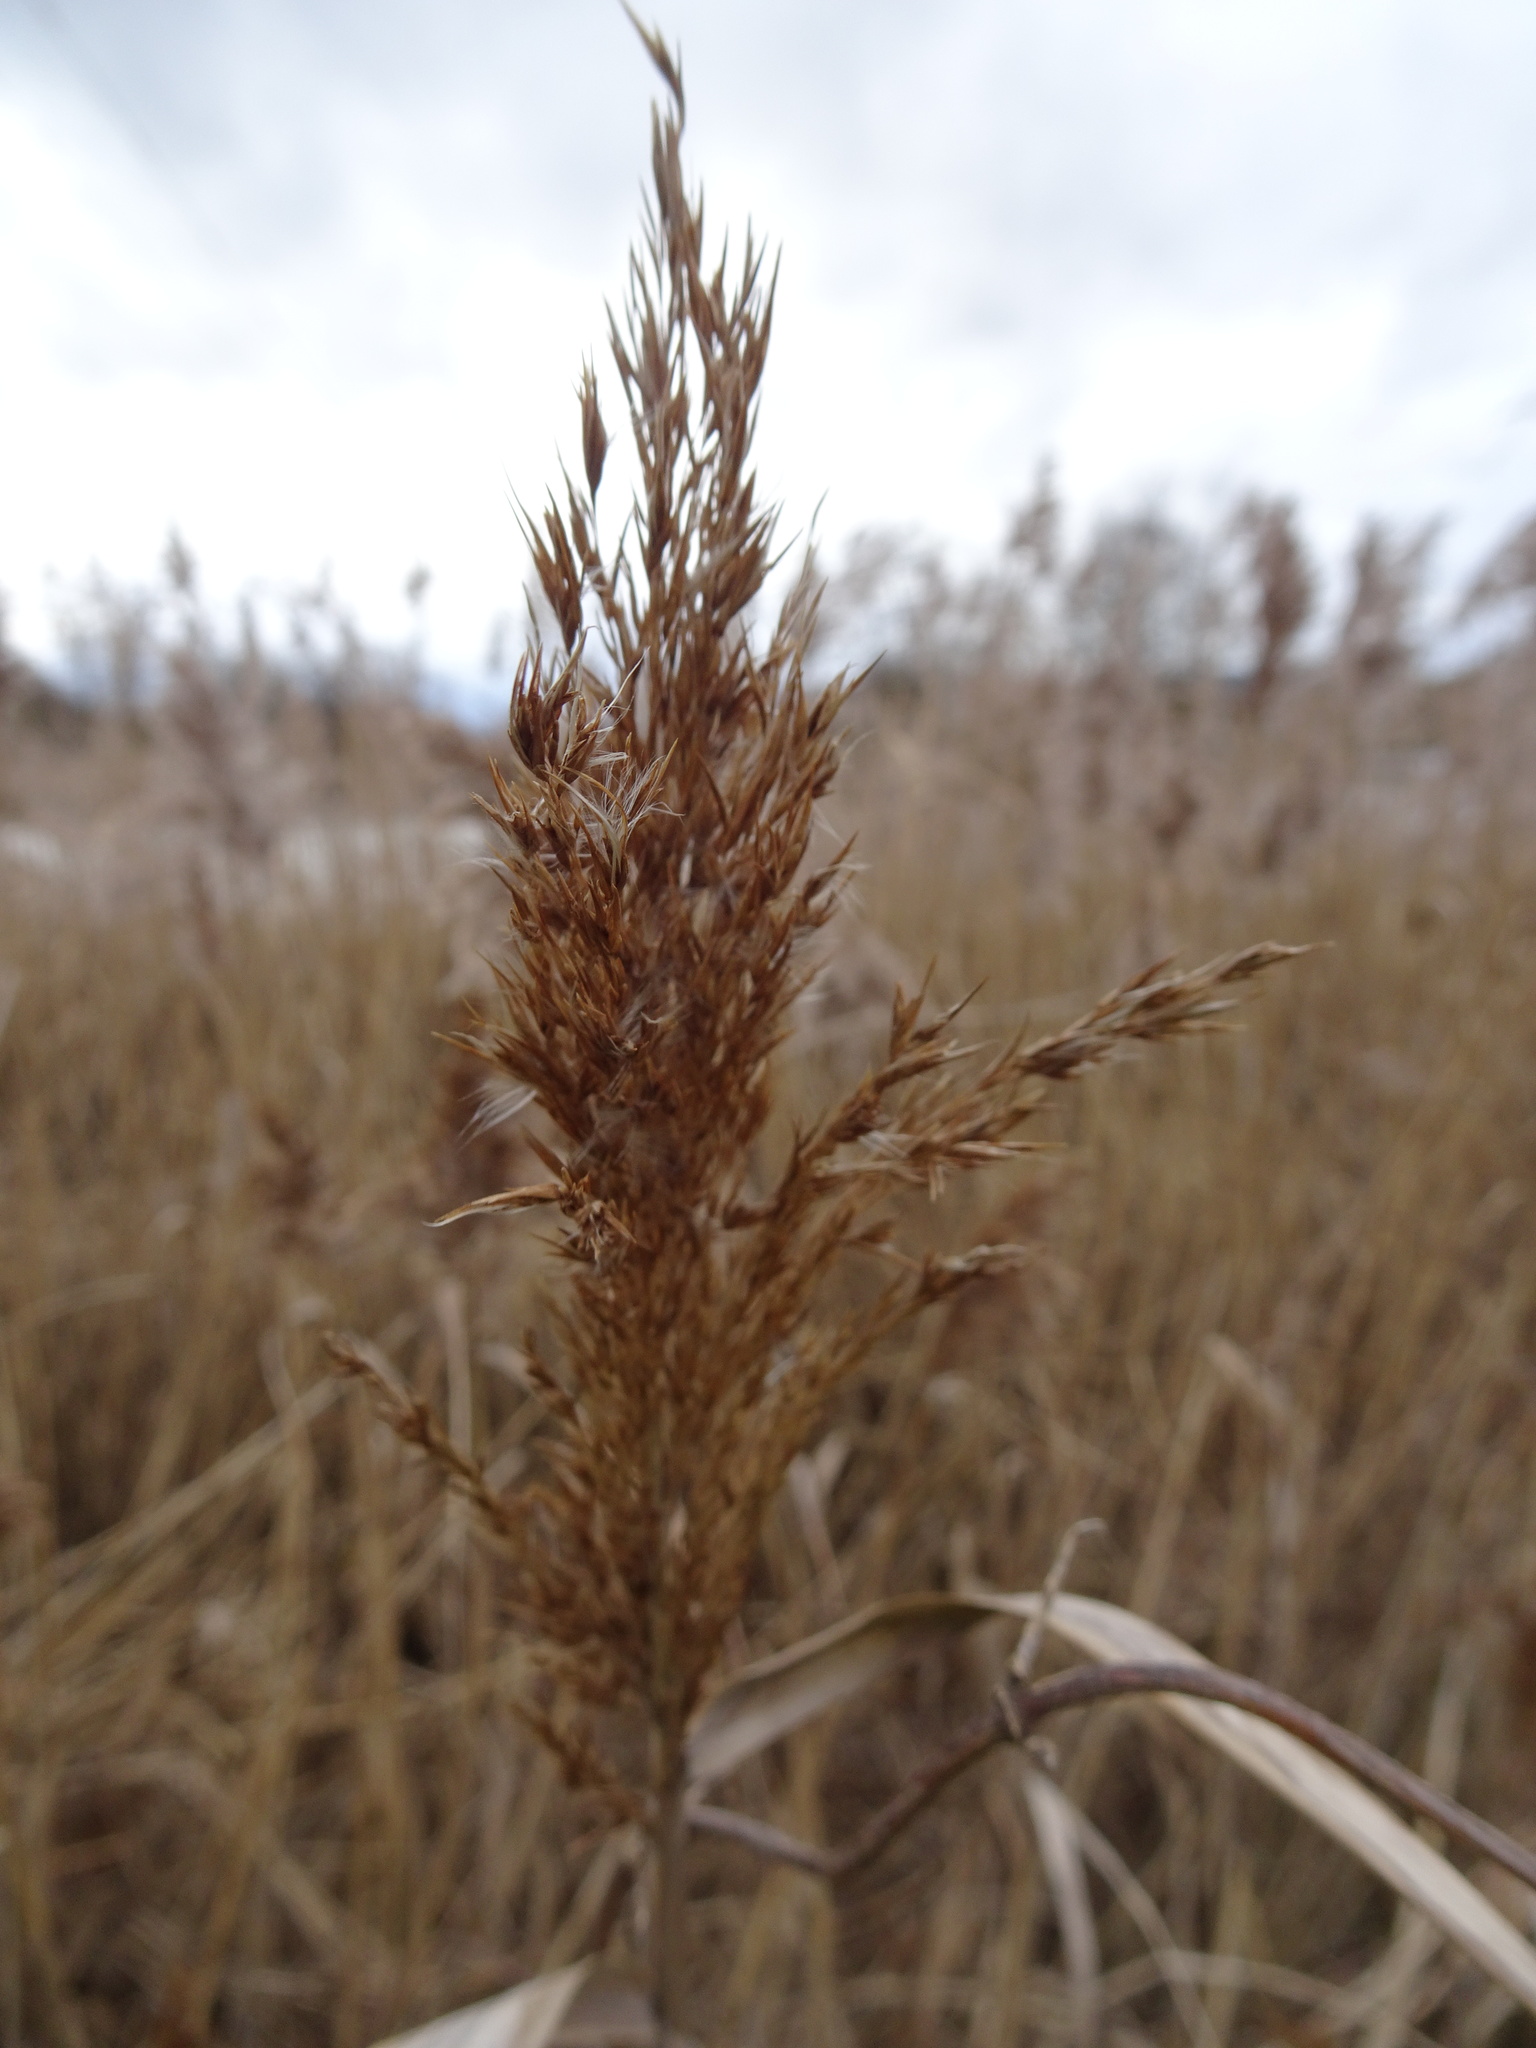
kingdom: Plantae
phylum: Tracheophyta
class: Liliopsida
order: Poales
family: Poaceae
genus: Phragmites
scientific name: Phragmites australis
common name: Common reed
